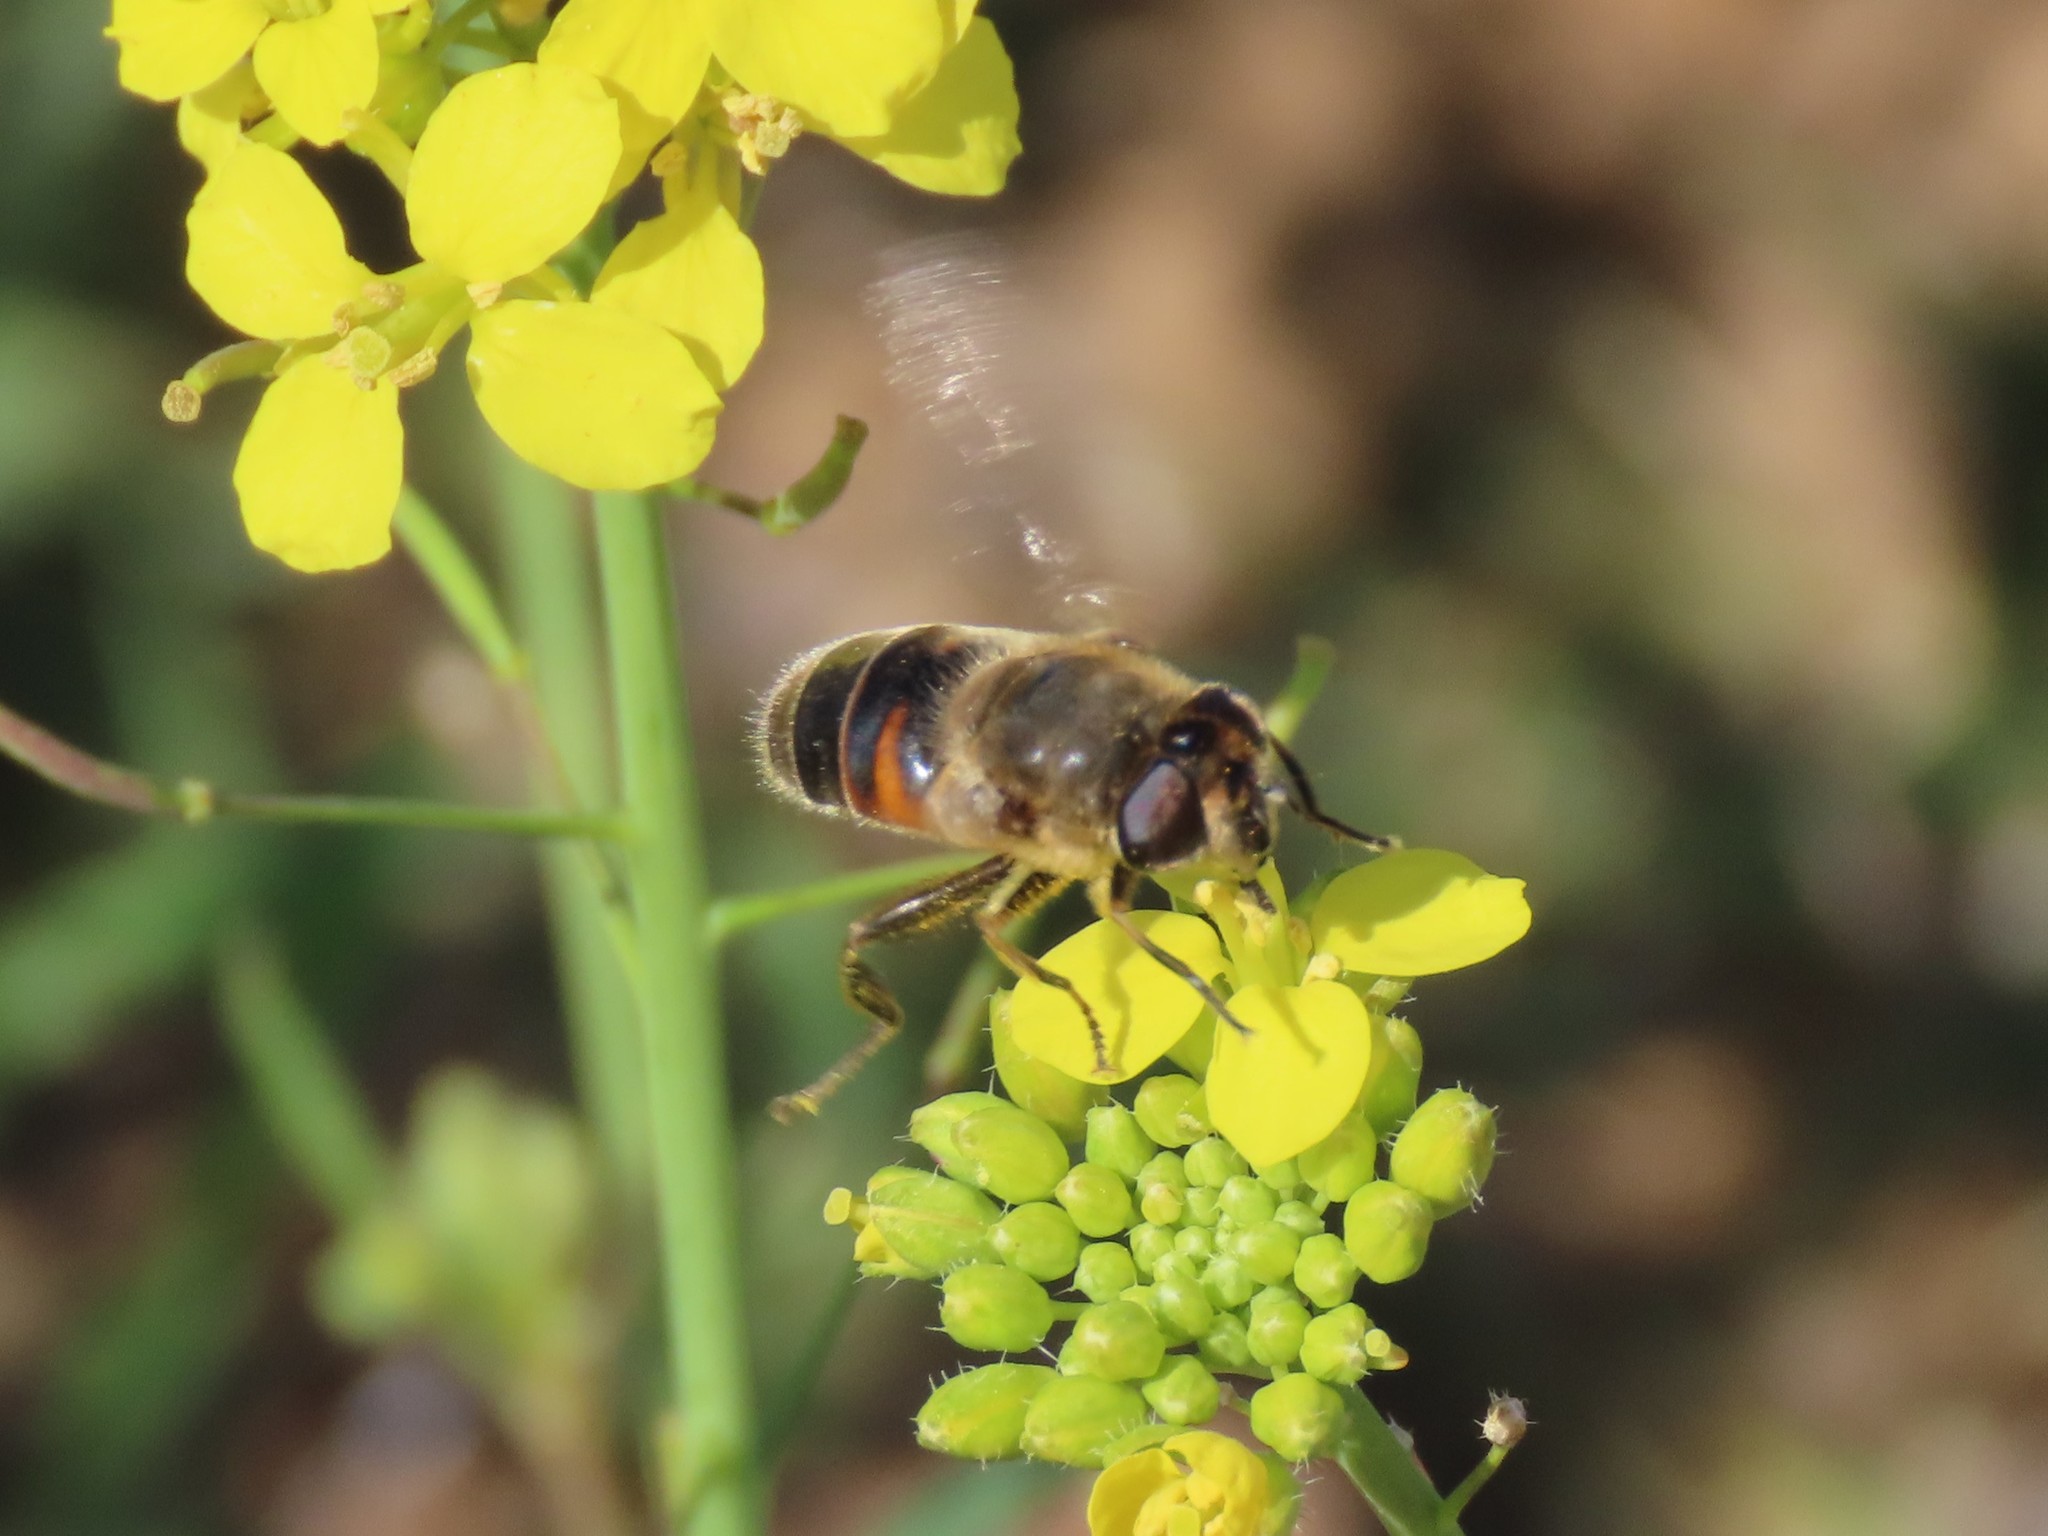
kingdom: Animalia
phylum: Arthropoda
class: Insecta
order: Diptera
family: Syrphidae
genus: Eristalis
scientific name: Eristalis tenax
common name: Drone fly
